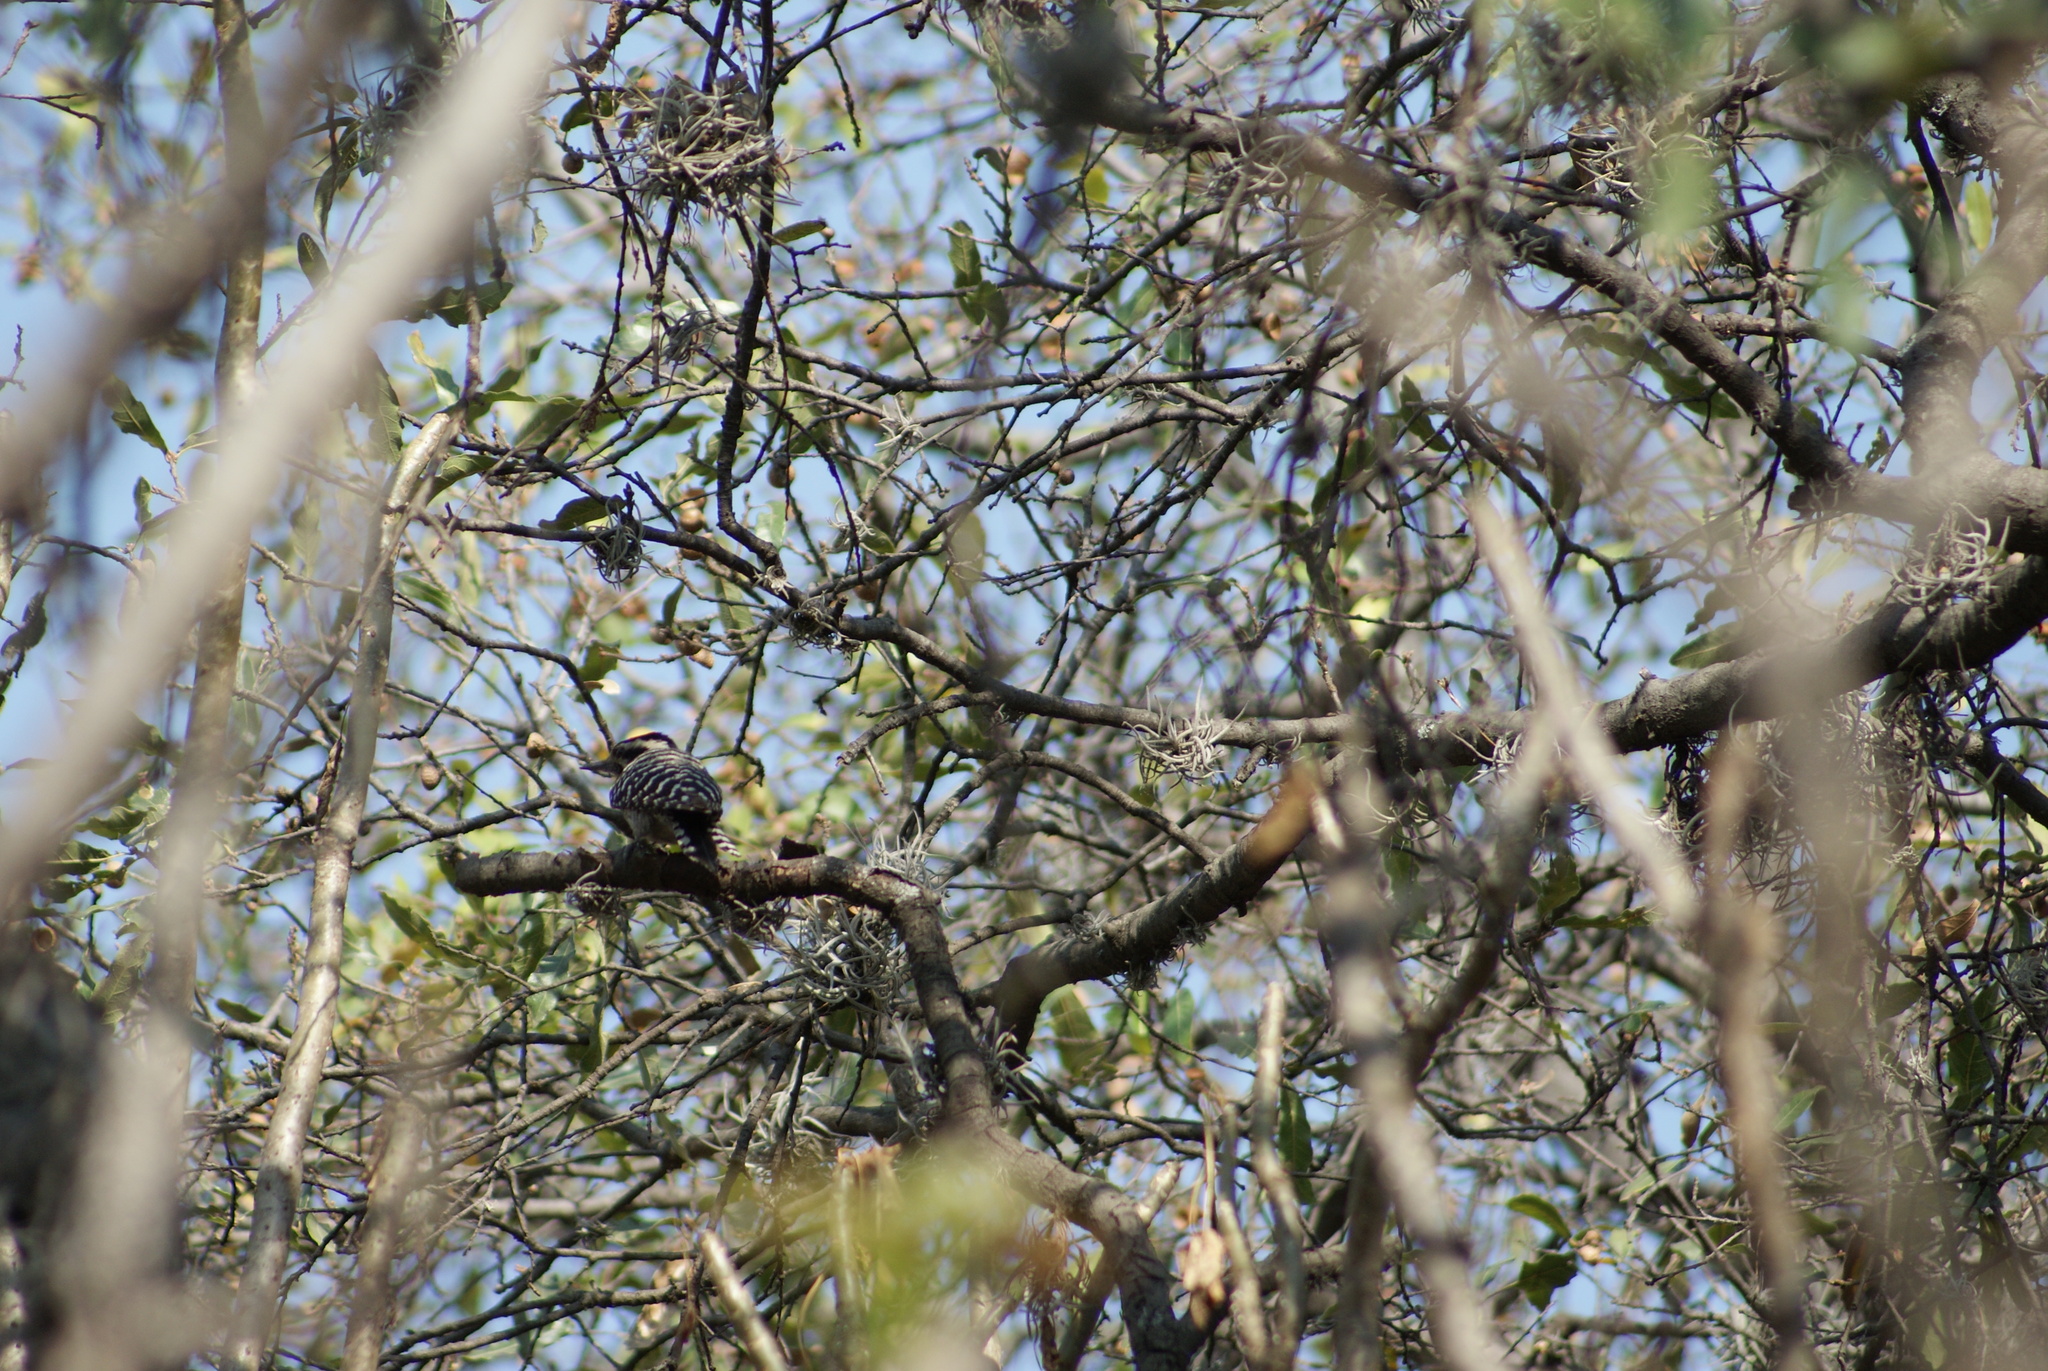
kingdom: Animalia
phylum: Chordata
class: Aves
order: Piciformes
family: Picidae
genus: Dryobates
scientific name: Dryobates scalaris
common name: Ladder-backed woodpecker
